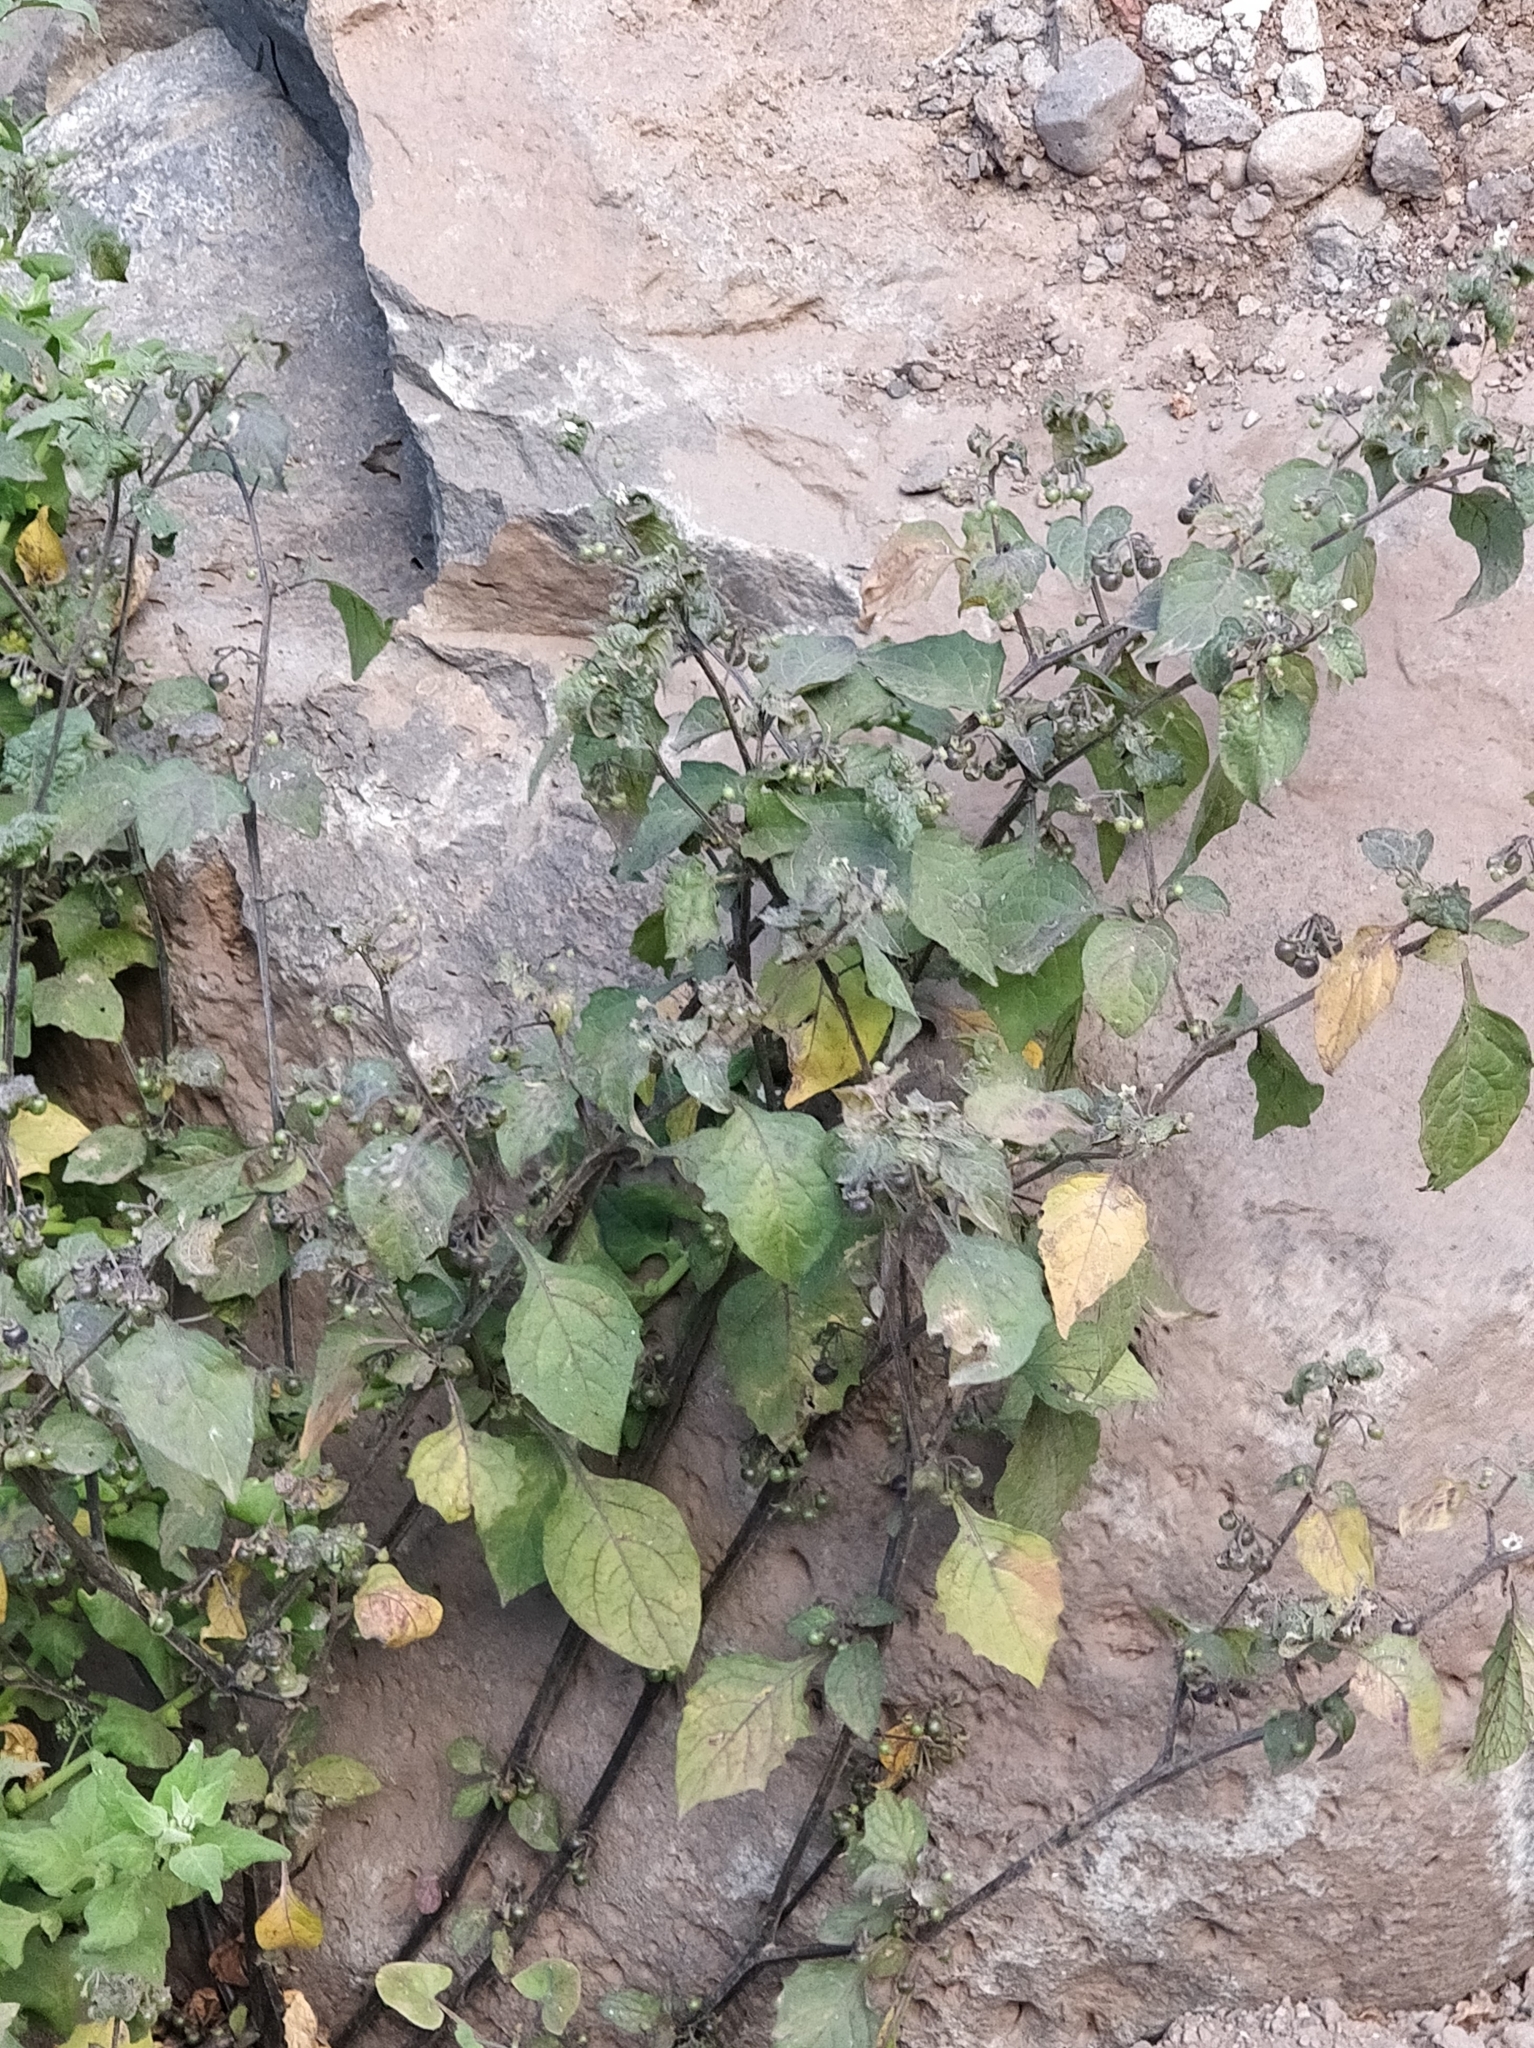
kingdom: Plantae
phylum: Tracheophyta
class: Magnoliopsida
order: Solanales
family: Solanaceae
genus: Solanum
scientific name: Solanum nigrum
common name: Black nightshade
